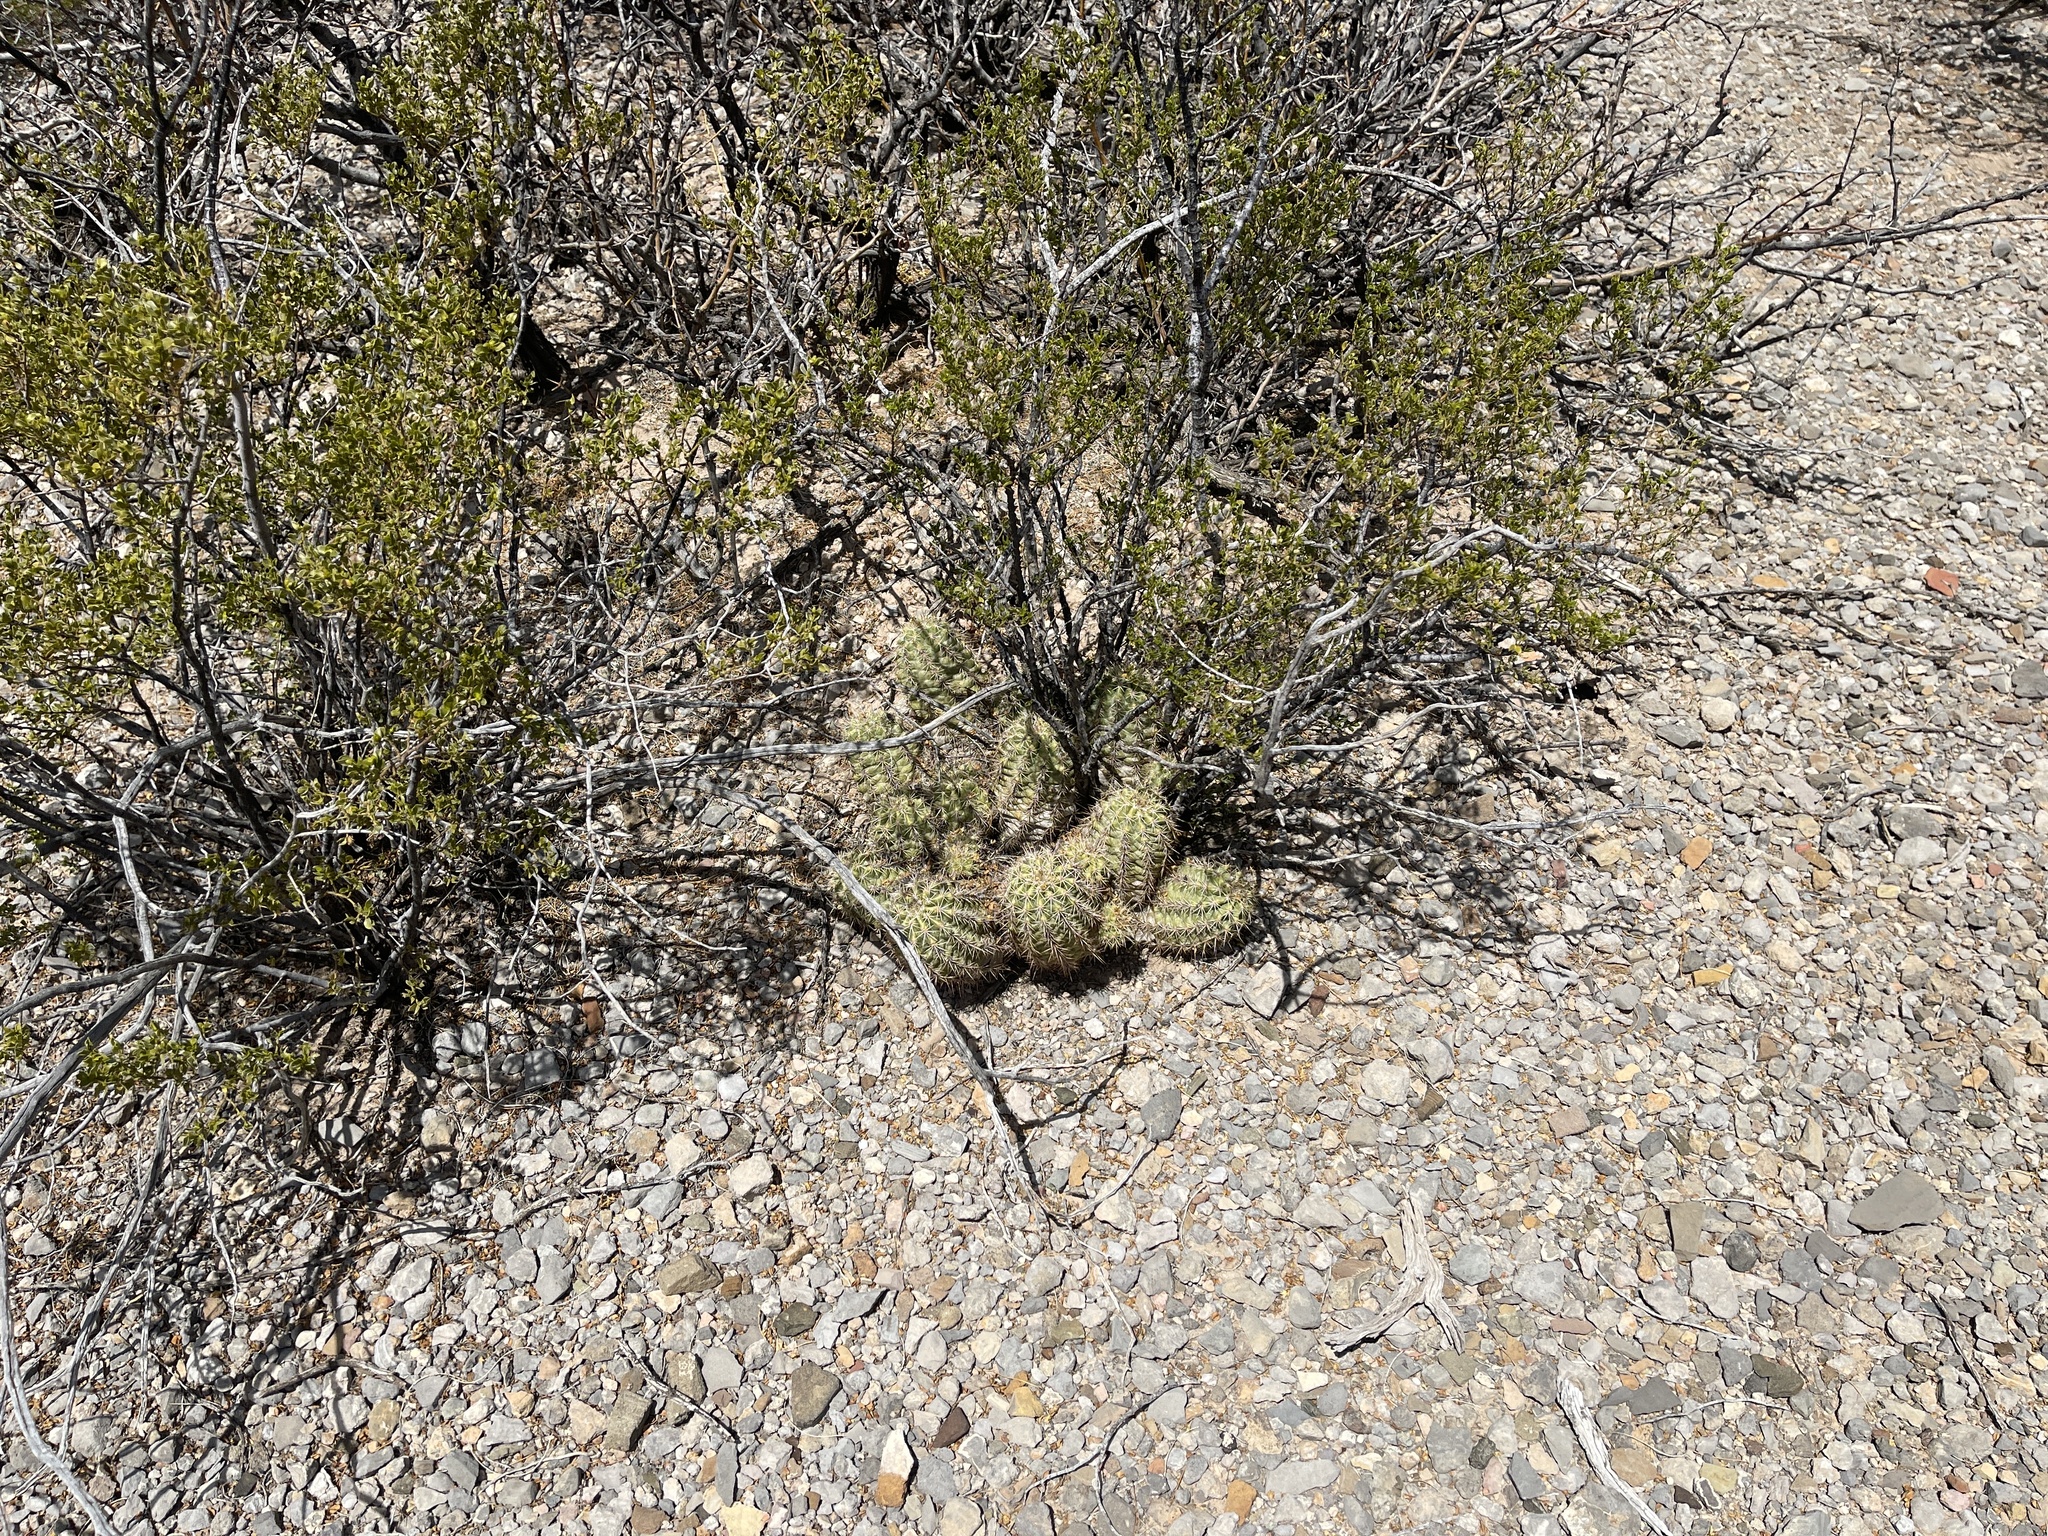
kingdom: Plantae
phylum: Tracheophyta
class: Magnoliopsida
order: Caryophyllales
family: Cactaceae
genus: Echinocereus
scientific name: Echinocereus coccineus
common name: Scarlet hedgehog cactus
